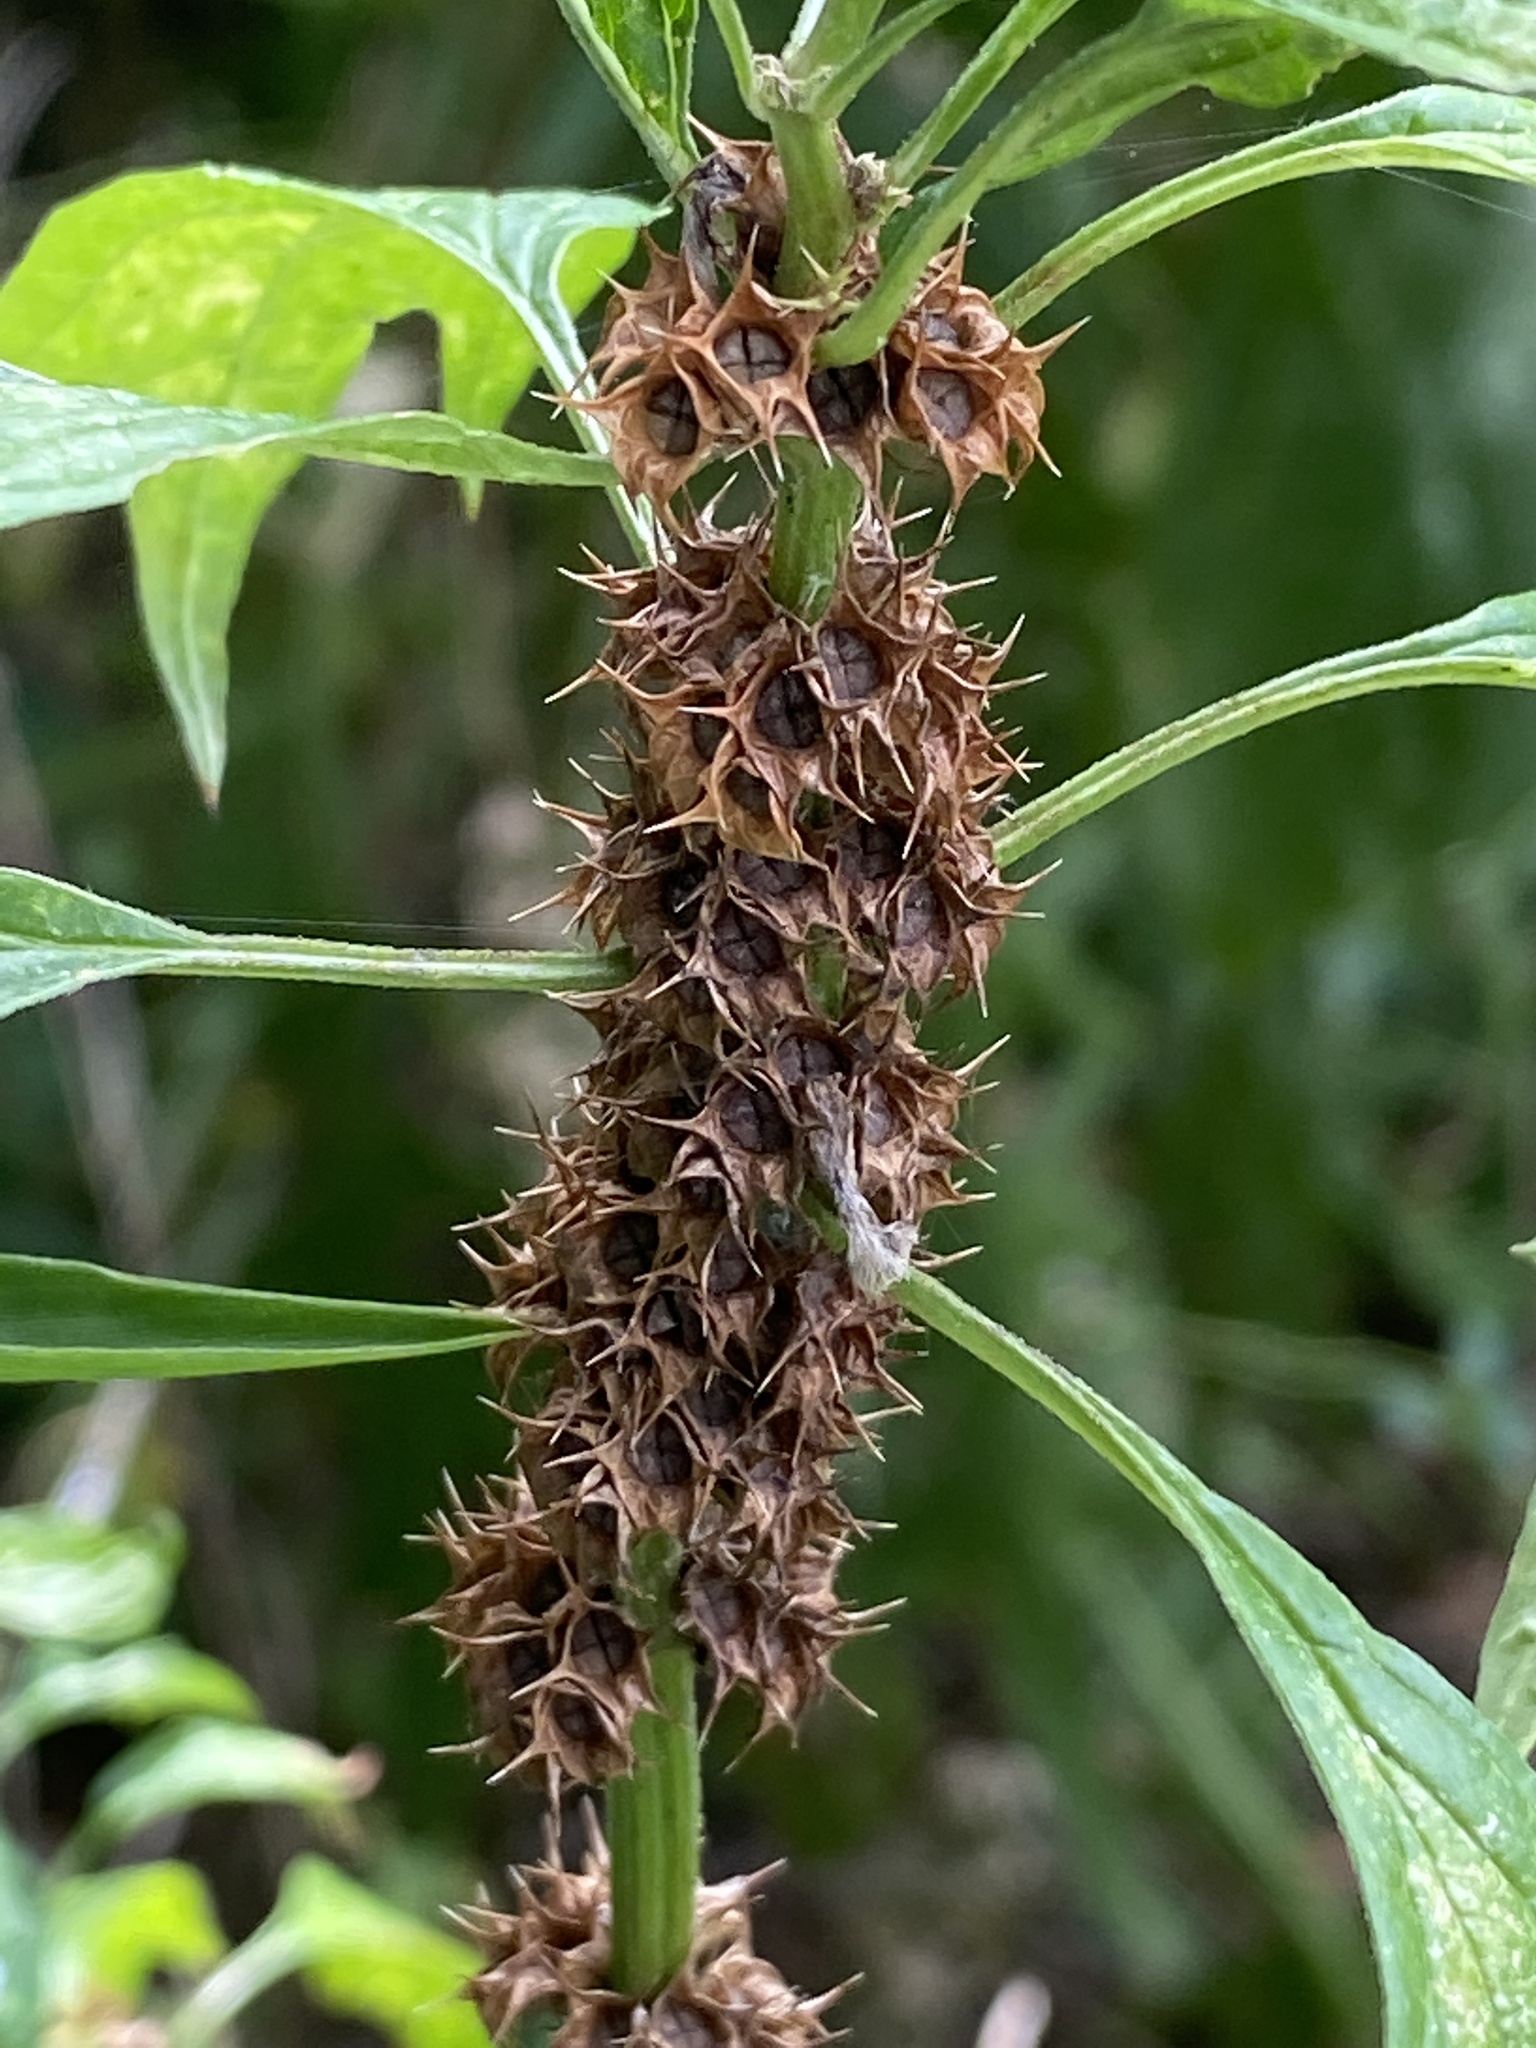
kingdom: Plantae
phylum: Tracheophyta
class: Magnoliopsida
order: Lamiales
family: Lamiaceae
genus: Leonurus
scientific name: Leonurus cardiaca
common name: Motherwort
